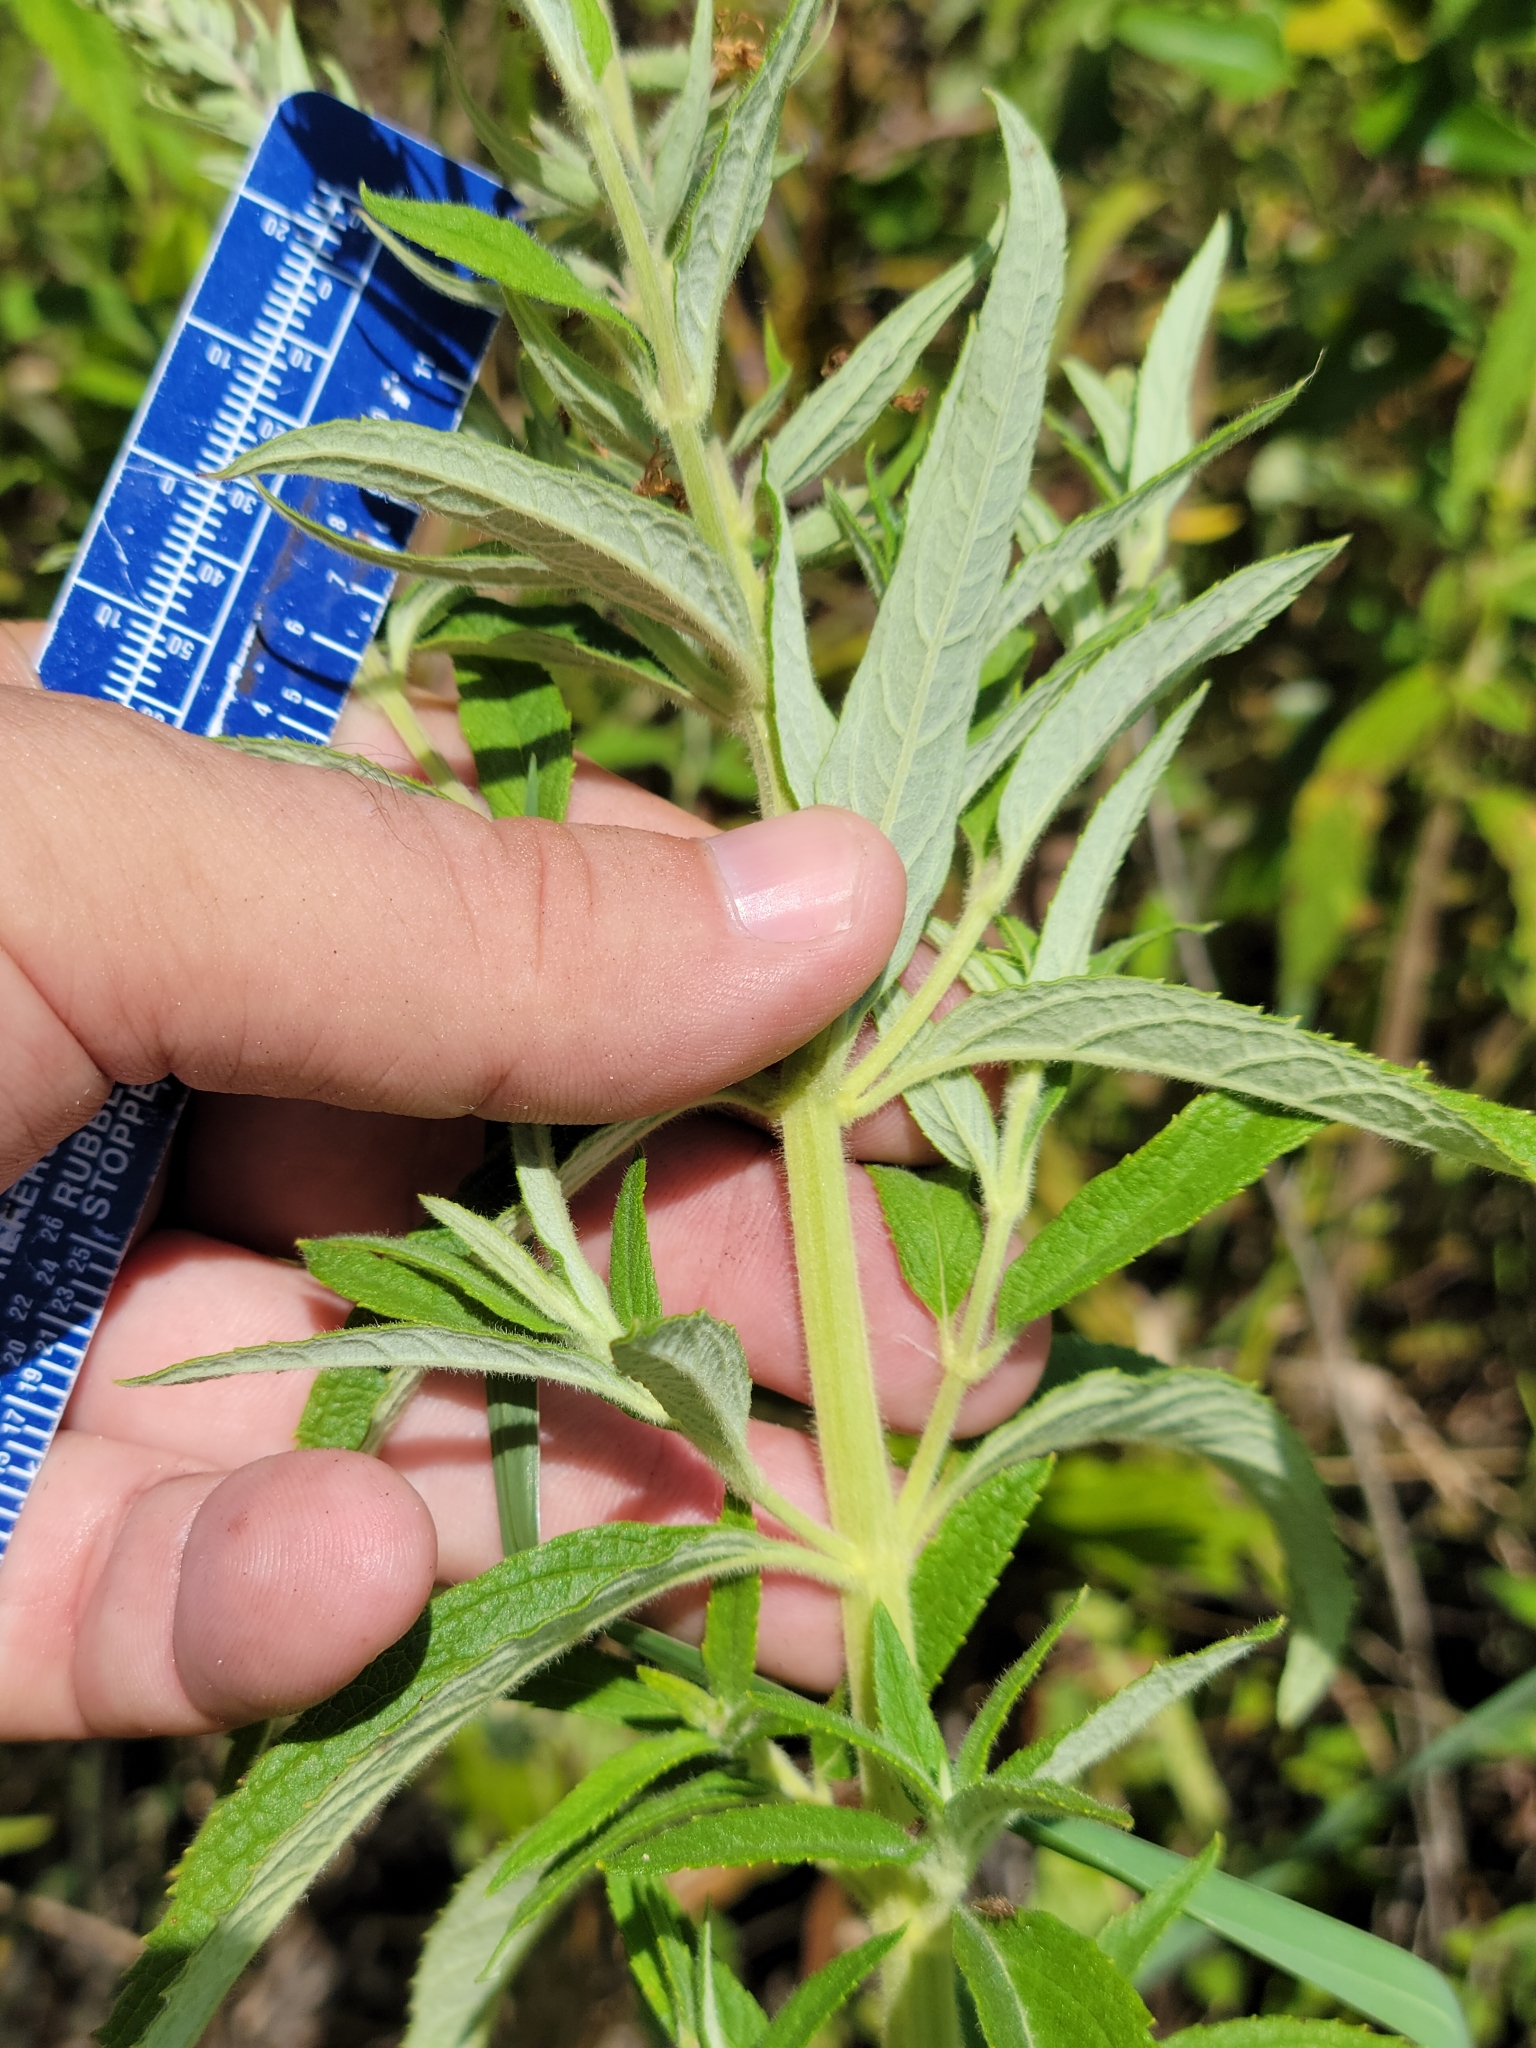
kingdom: Plantae
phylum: Tracheophyta
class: Magnoliopsida
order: Lamiales
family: Lamiaceae
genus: Teucrium
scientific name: Teucrium canadense
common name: American germander
